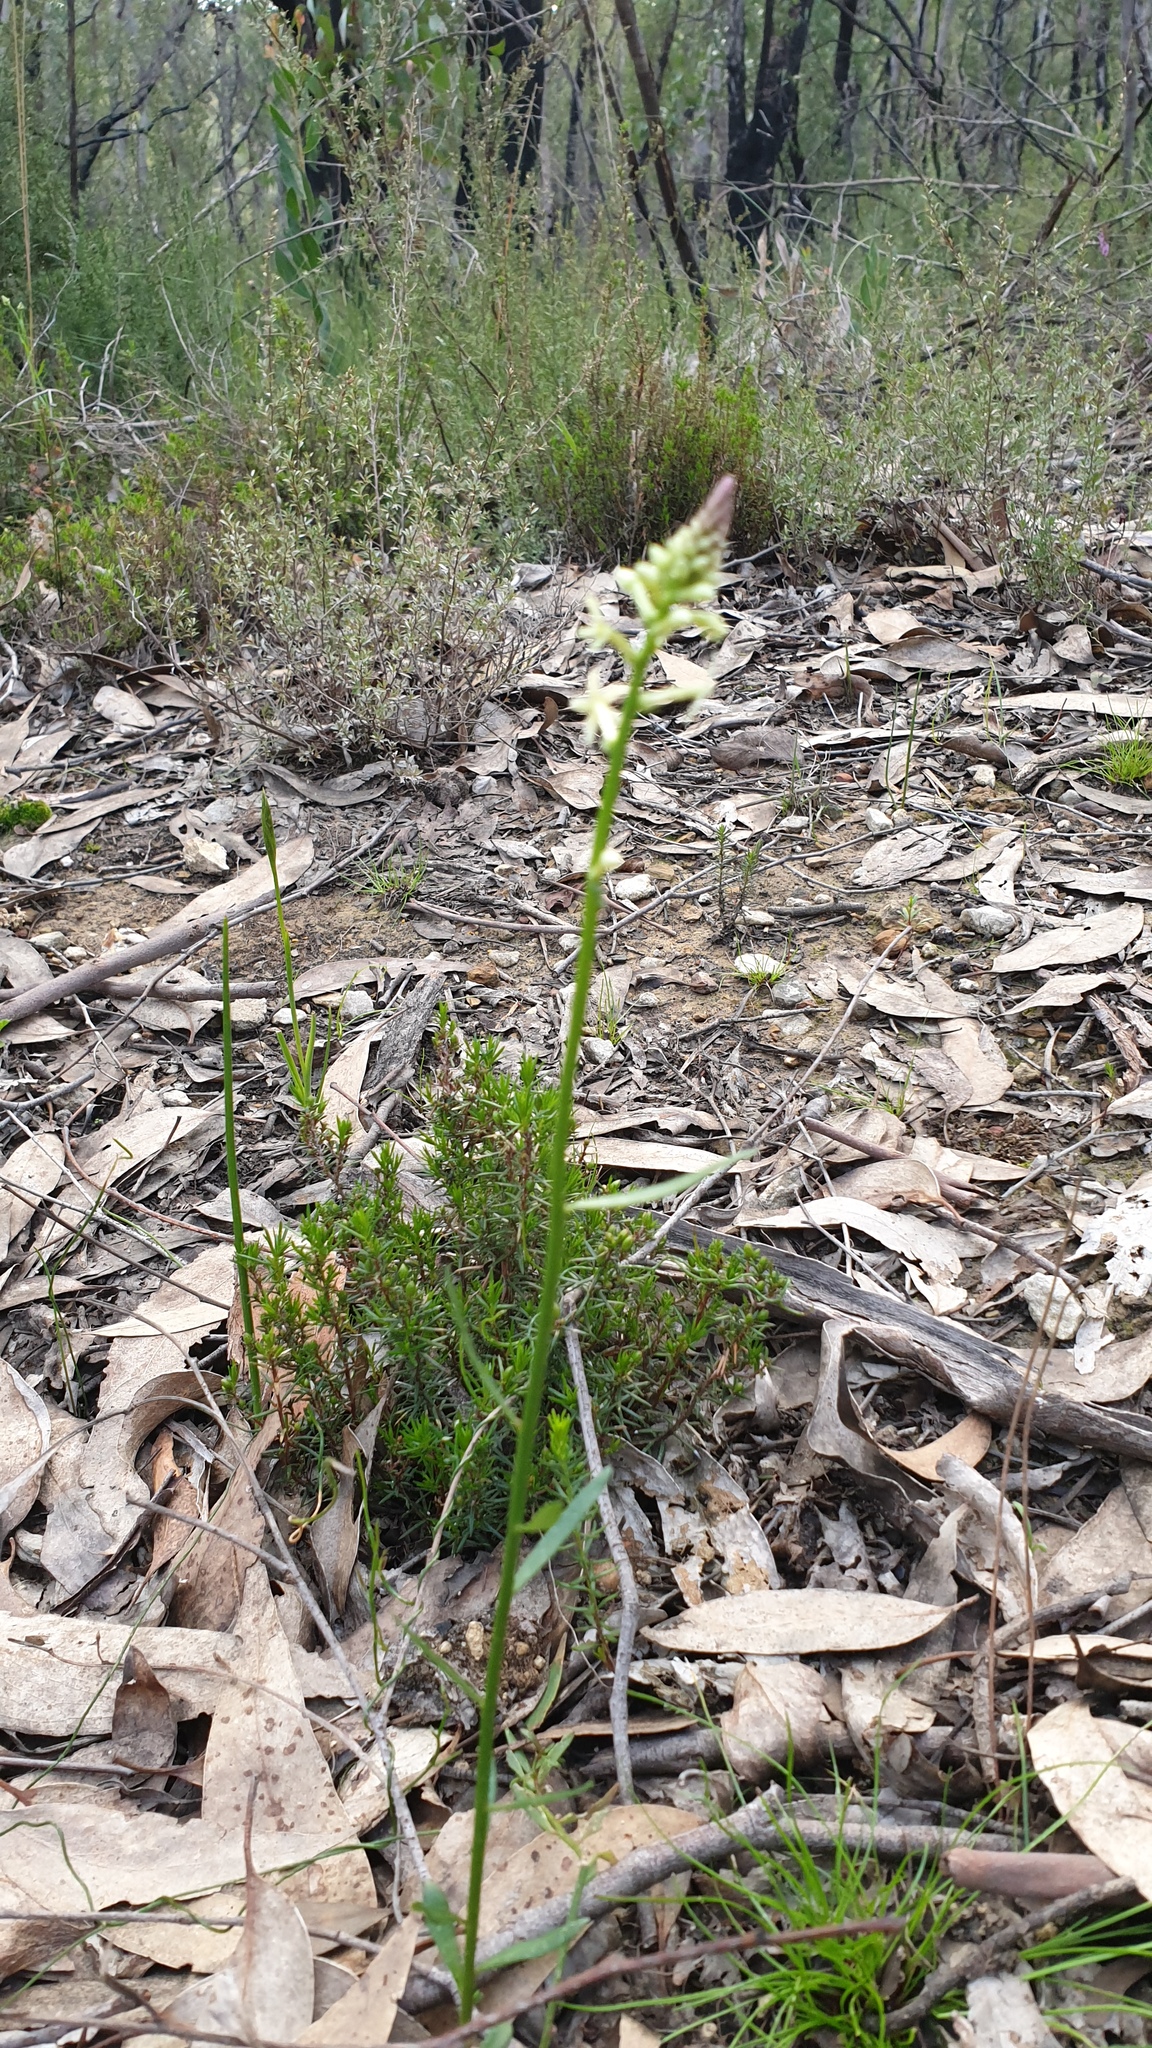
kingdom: Plantae
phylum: Tracheophyta
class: Magnoliopsida
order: Celastrales
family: Celastraceae
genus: Stackhousia
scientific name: Stackhousia monogyna
